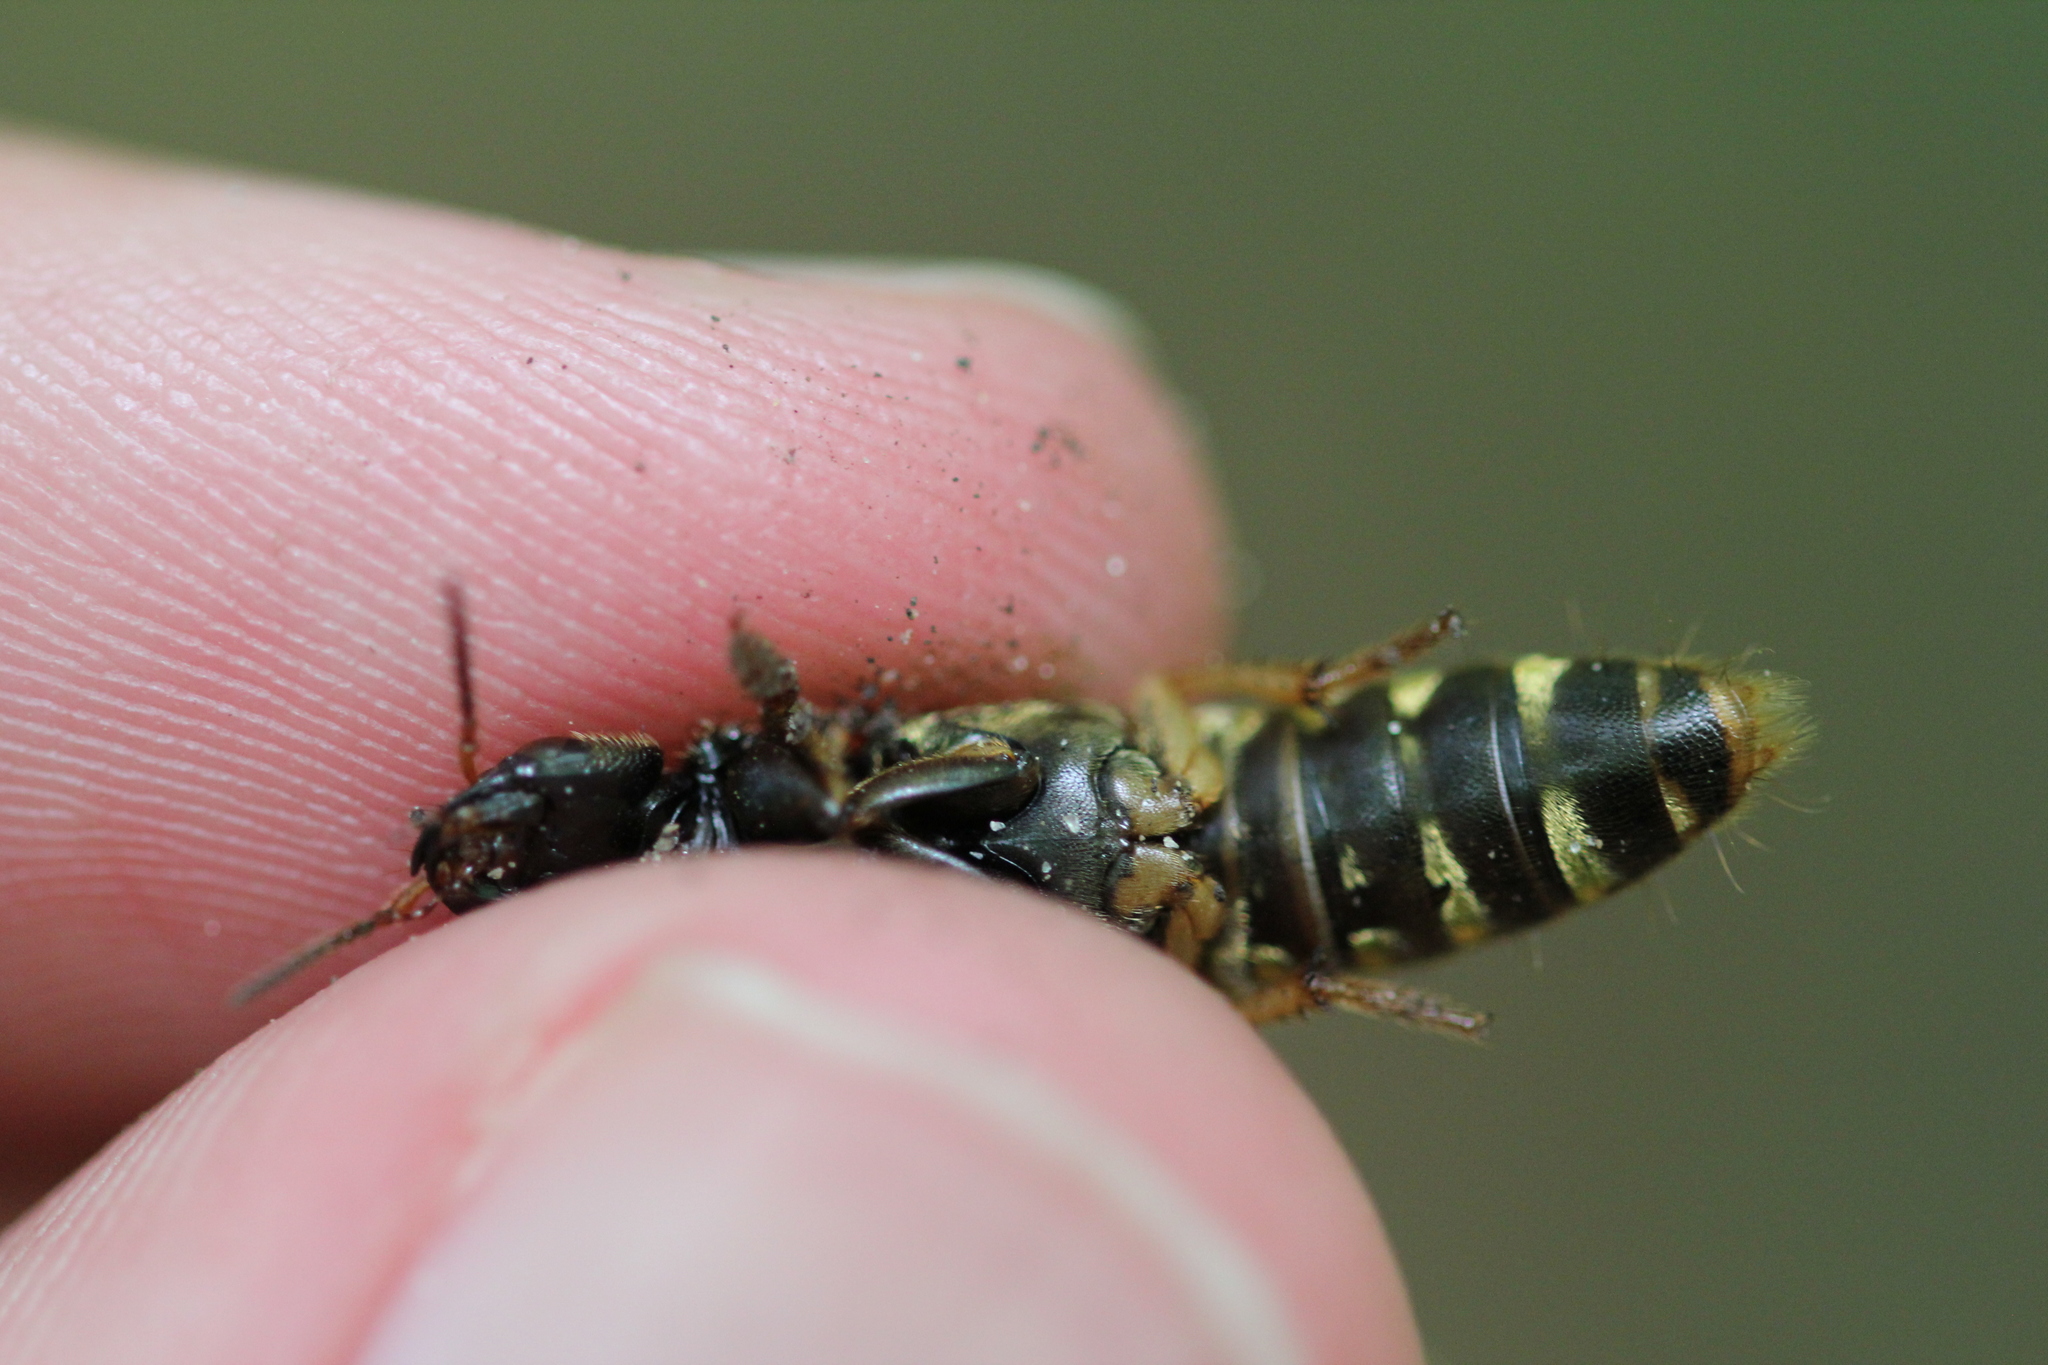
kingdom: Animalia
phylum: Arthropoda
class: Insecta
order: Coleoptera
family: Staphylinidae
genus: Platydracus
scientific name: Platydracus maculosus
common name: Brown rove beetle
